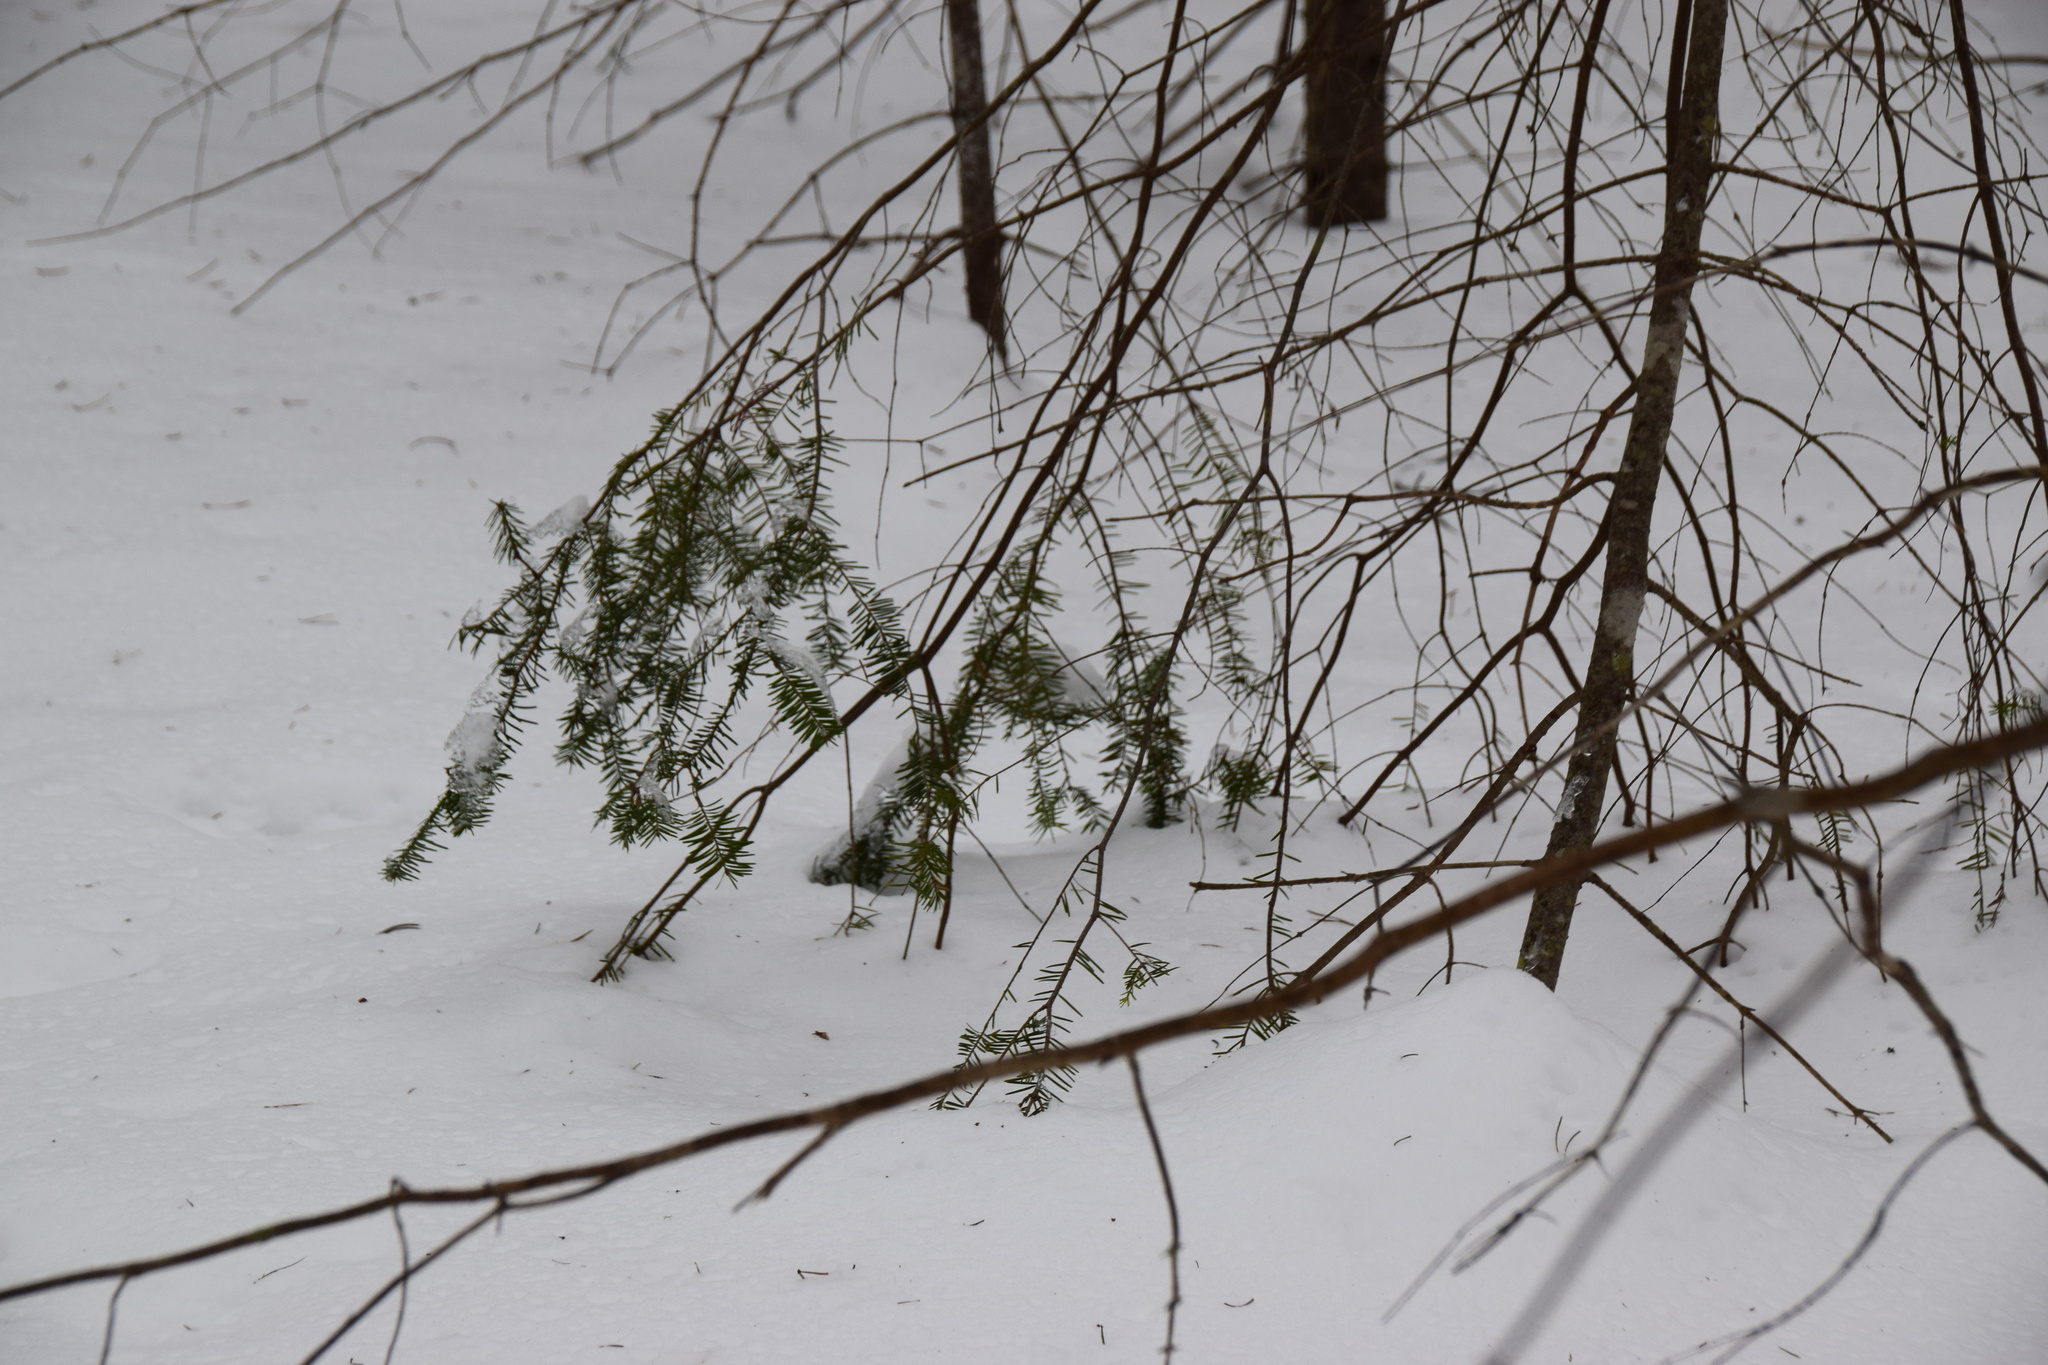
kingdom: Plantae
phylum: Tracheophyta
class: Pinopsida
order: Pinales
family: Pinaceae
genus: Abies
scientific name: Abies balsamea
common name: Balsam fir
